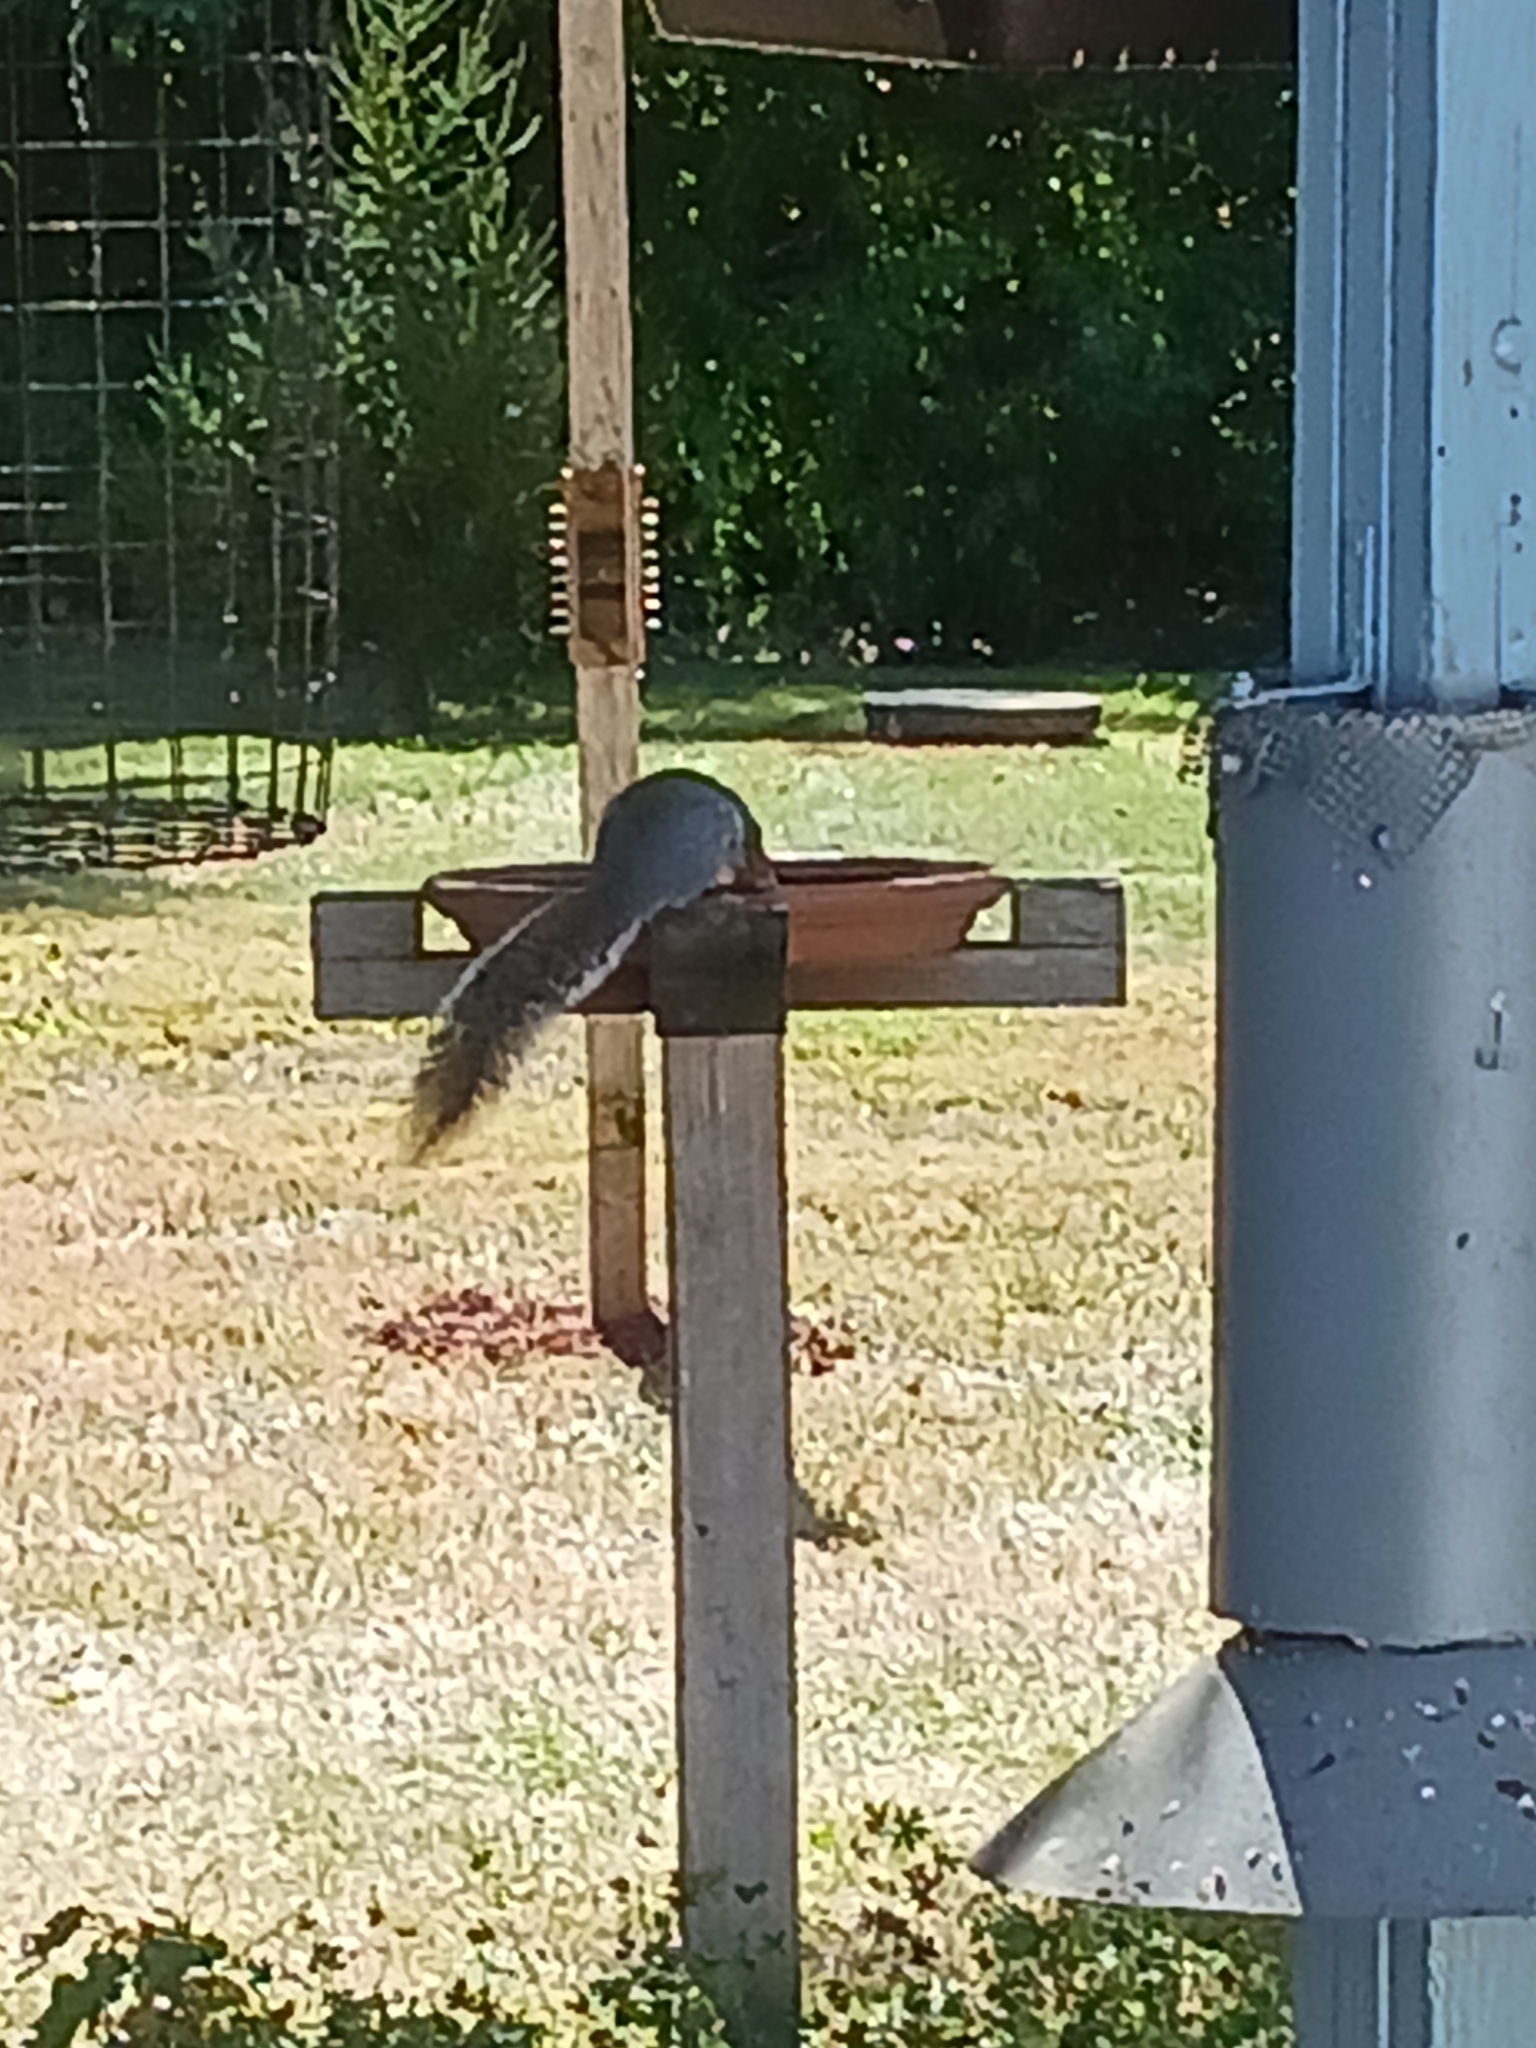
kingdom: Animalia
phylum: Chordata
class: Mammalia
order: Rodentia
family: Sciuridae
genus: Sciurus
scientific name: Sciurus carolinensis
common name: Eastern gray squirrel
